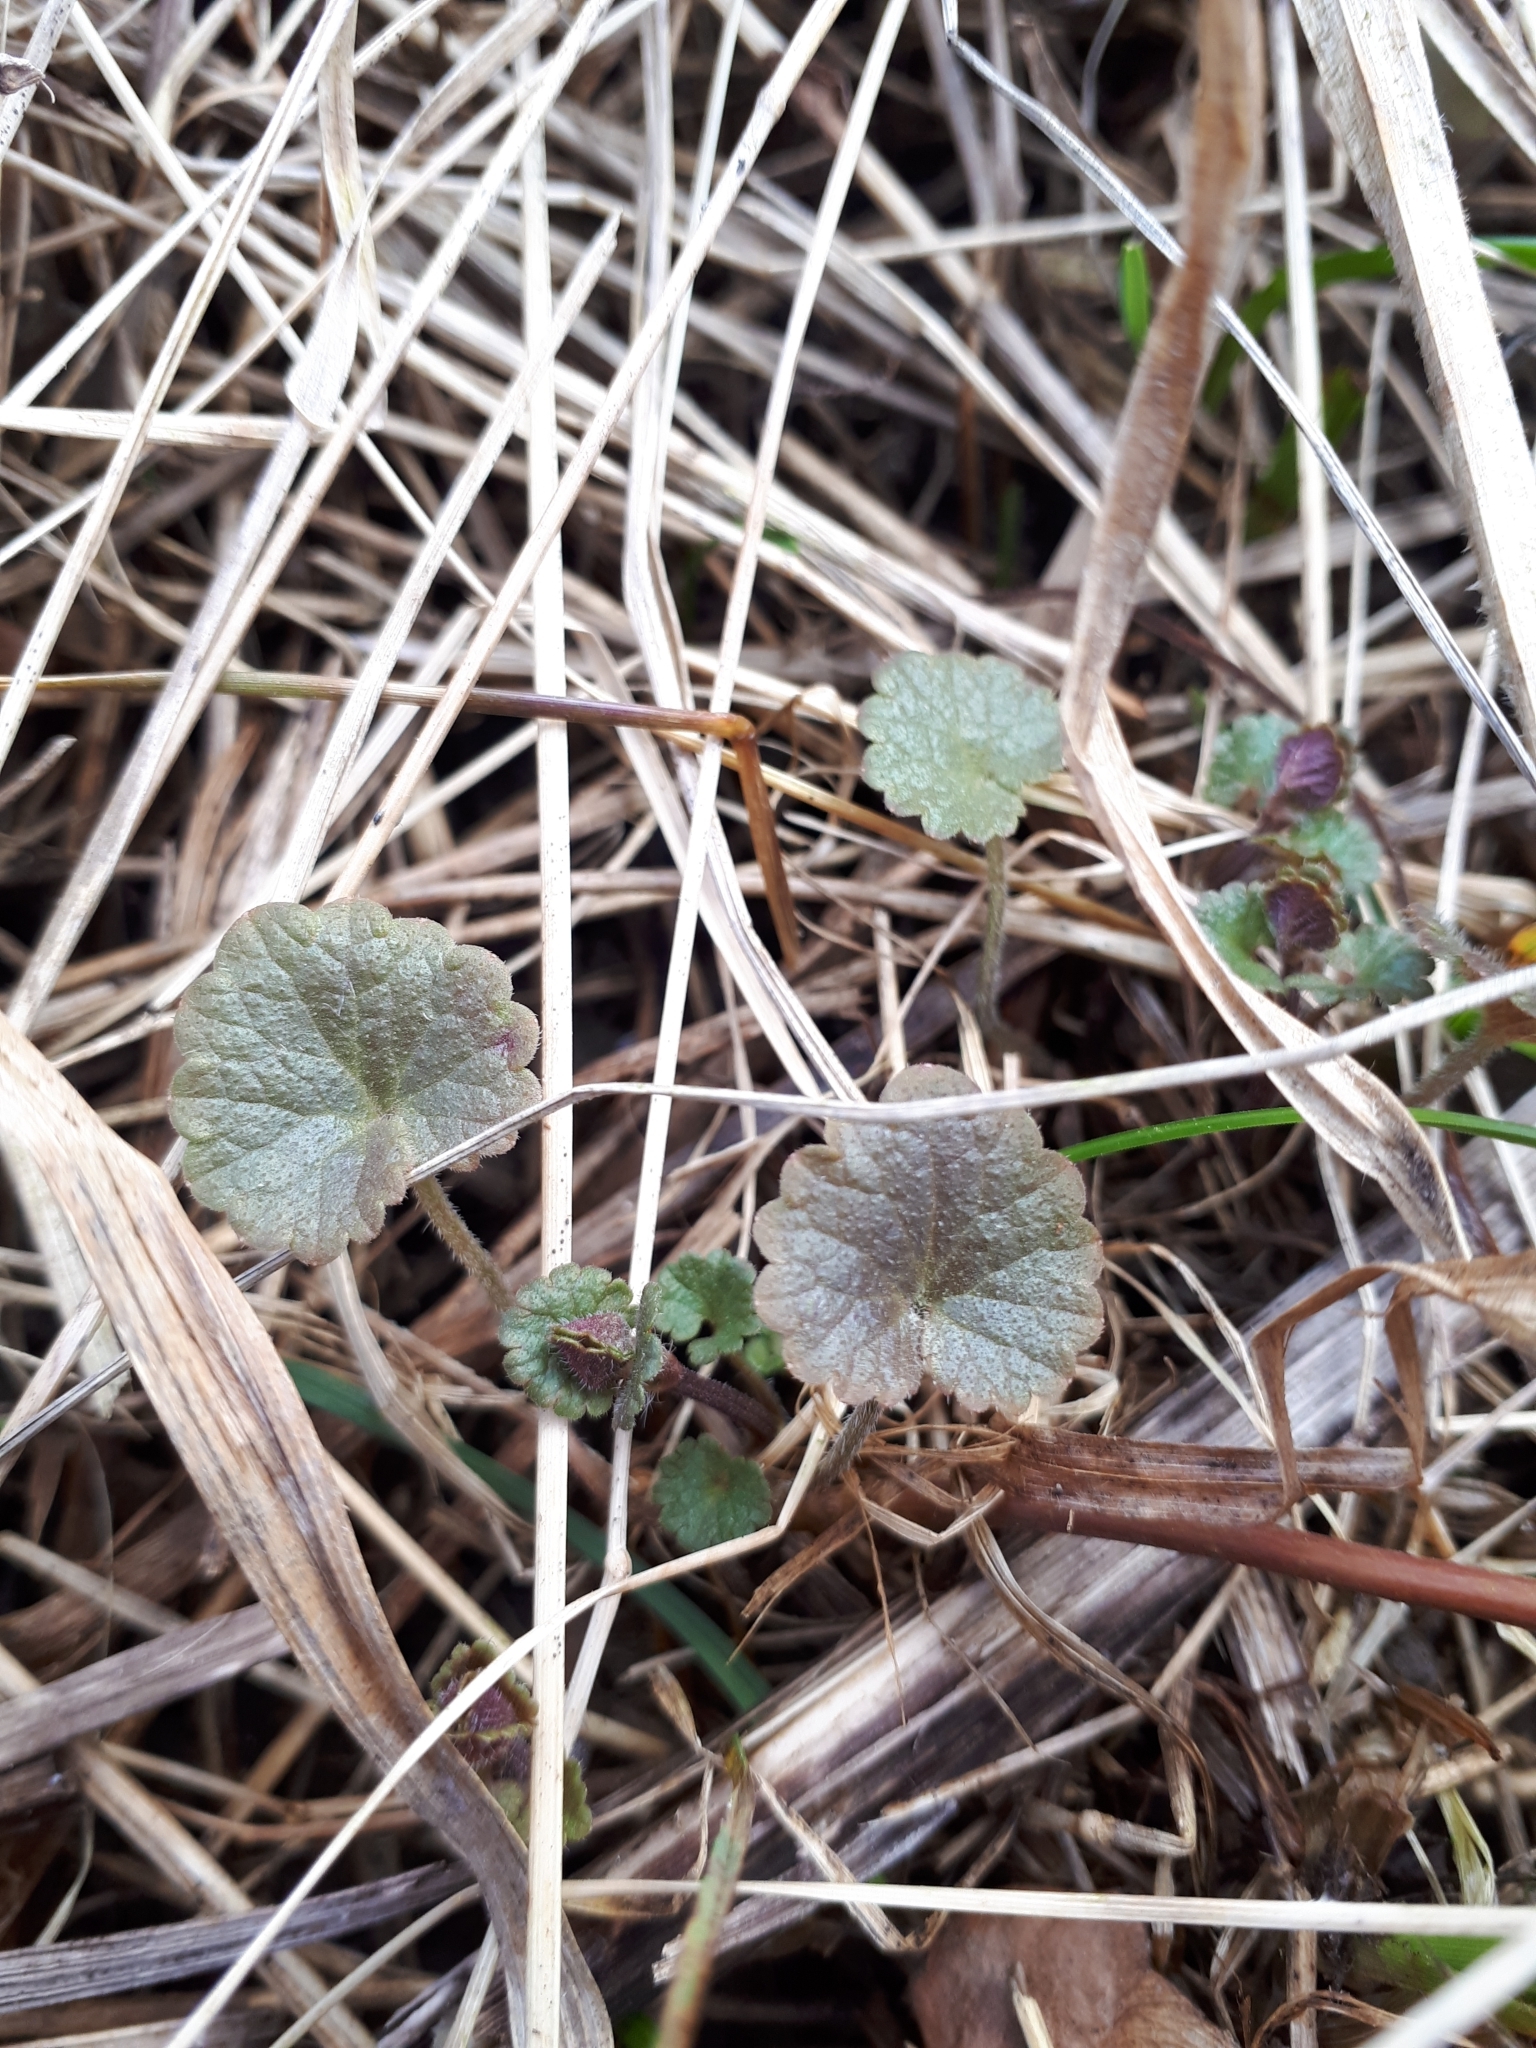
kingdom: Plantae
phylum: Tracheophyta
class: Magnoliopsida
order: Lamiales
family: Lamiaceae
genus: Glechoma
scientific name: Glechoma hederacea
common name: Ground ivy
